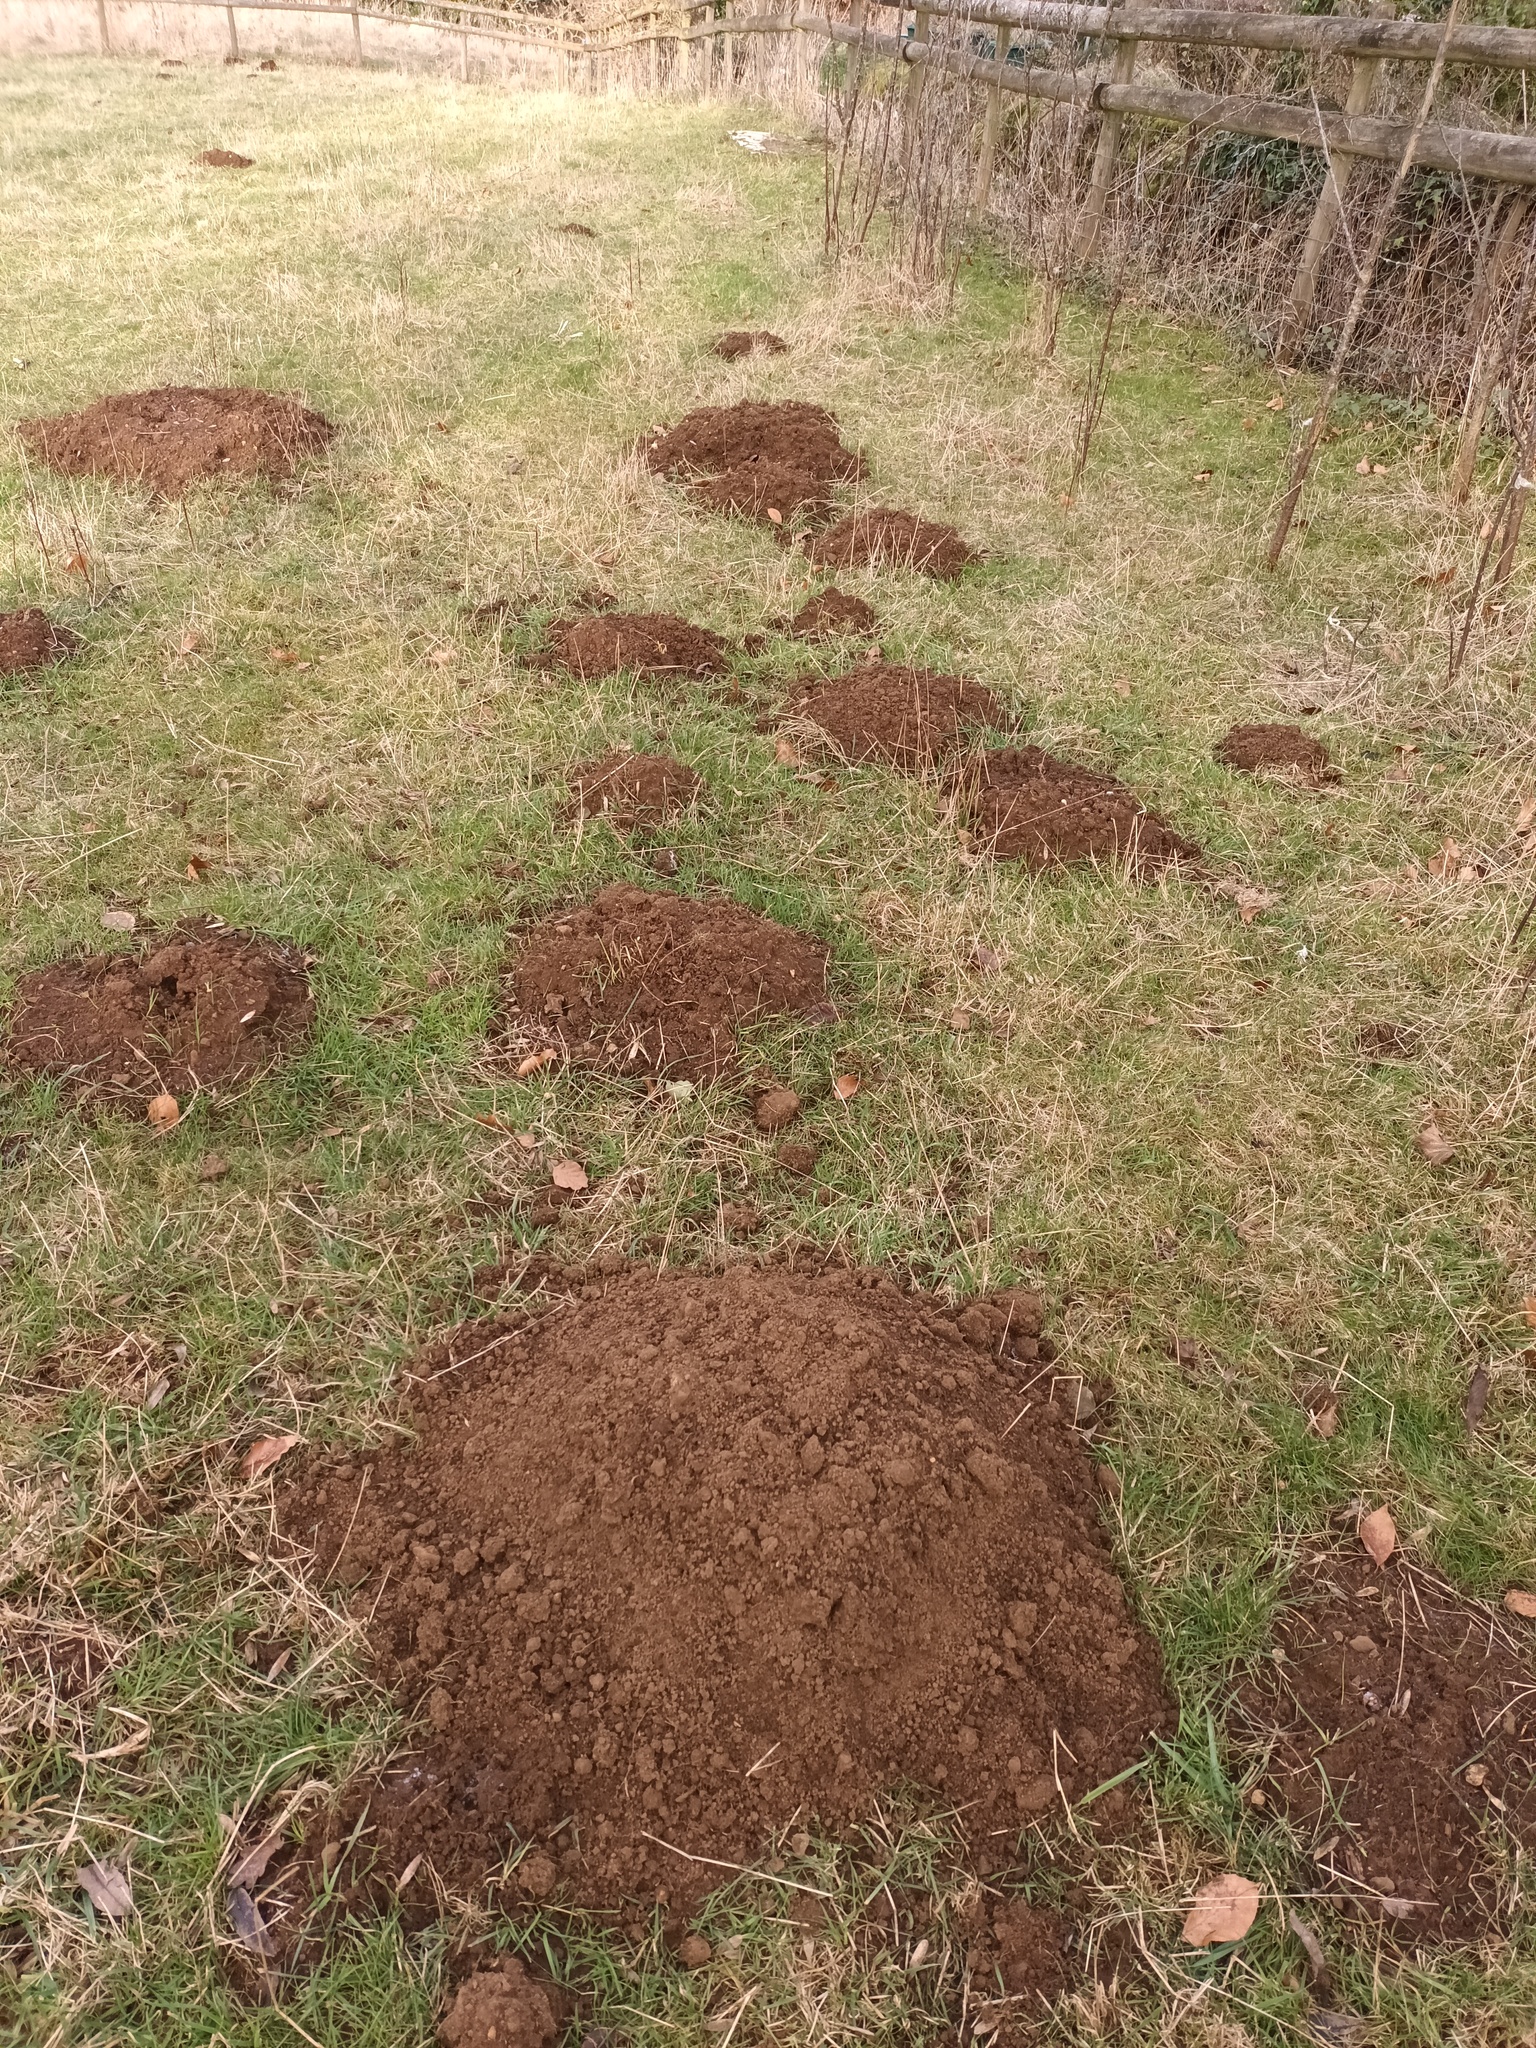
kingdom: Animalia
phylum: Chordata
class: Mammalia
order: Soricomorpha
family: Talpidae
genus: Talpa
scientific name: Talpa europaea
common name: European mole
